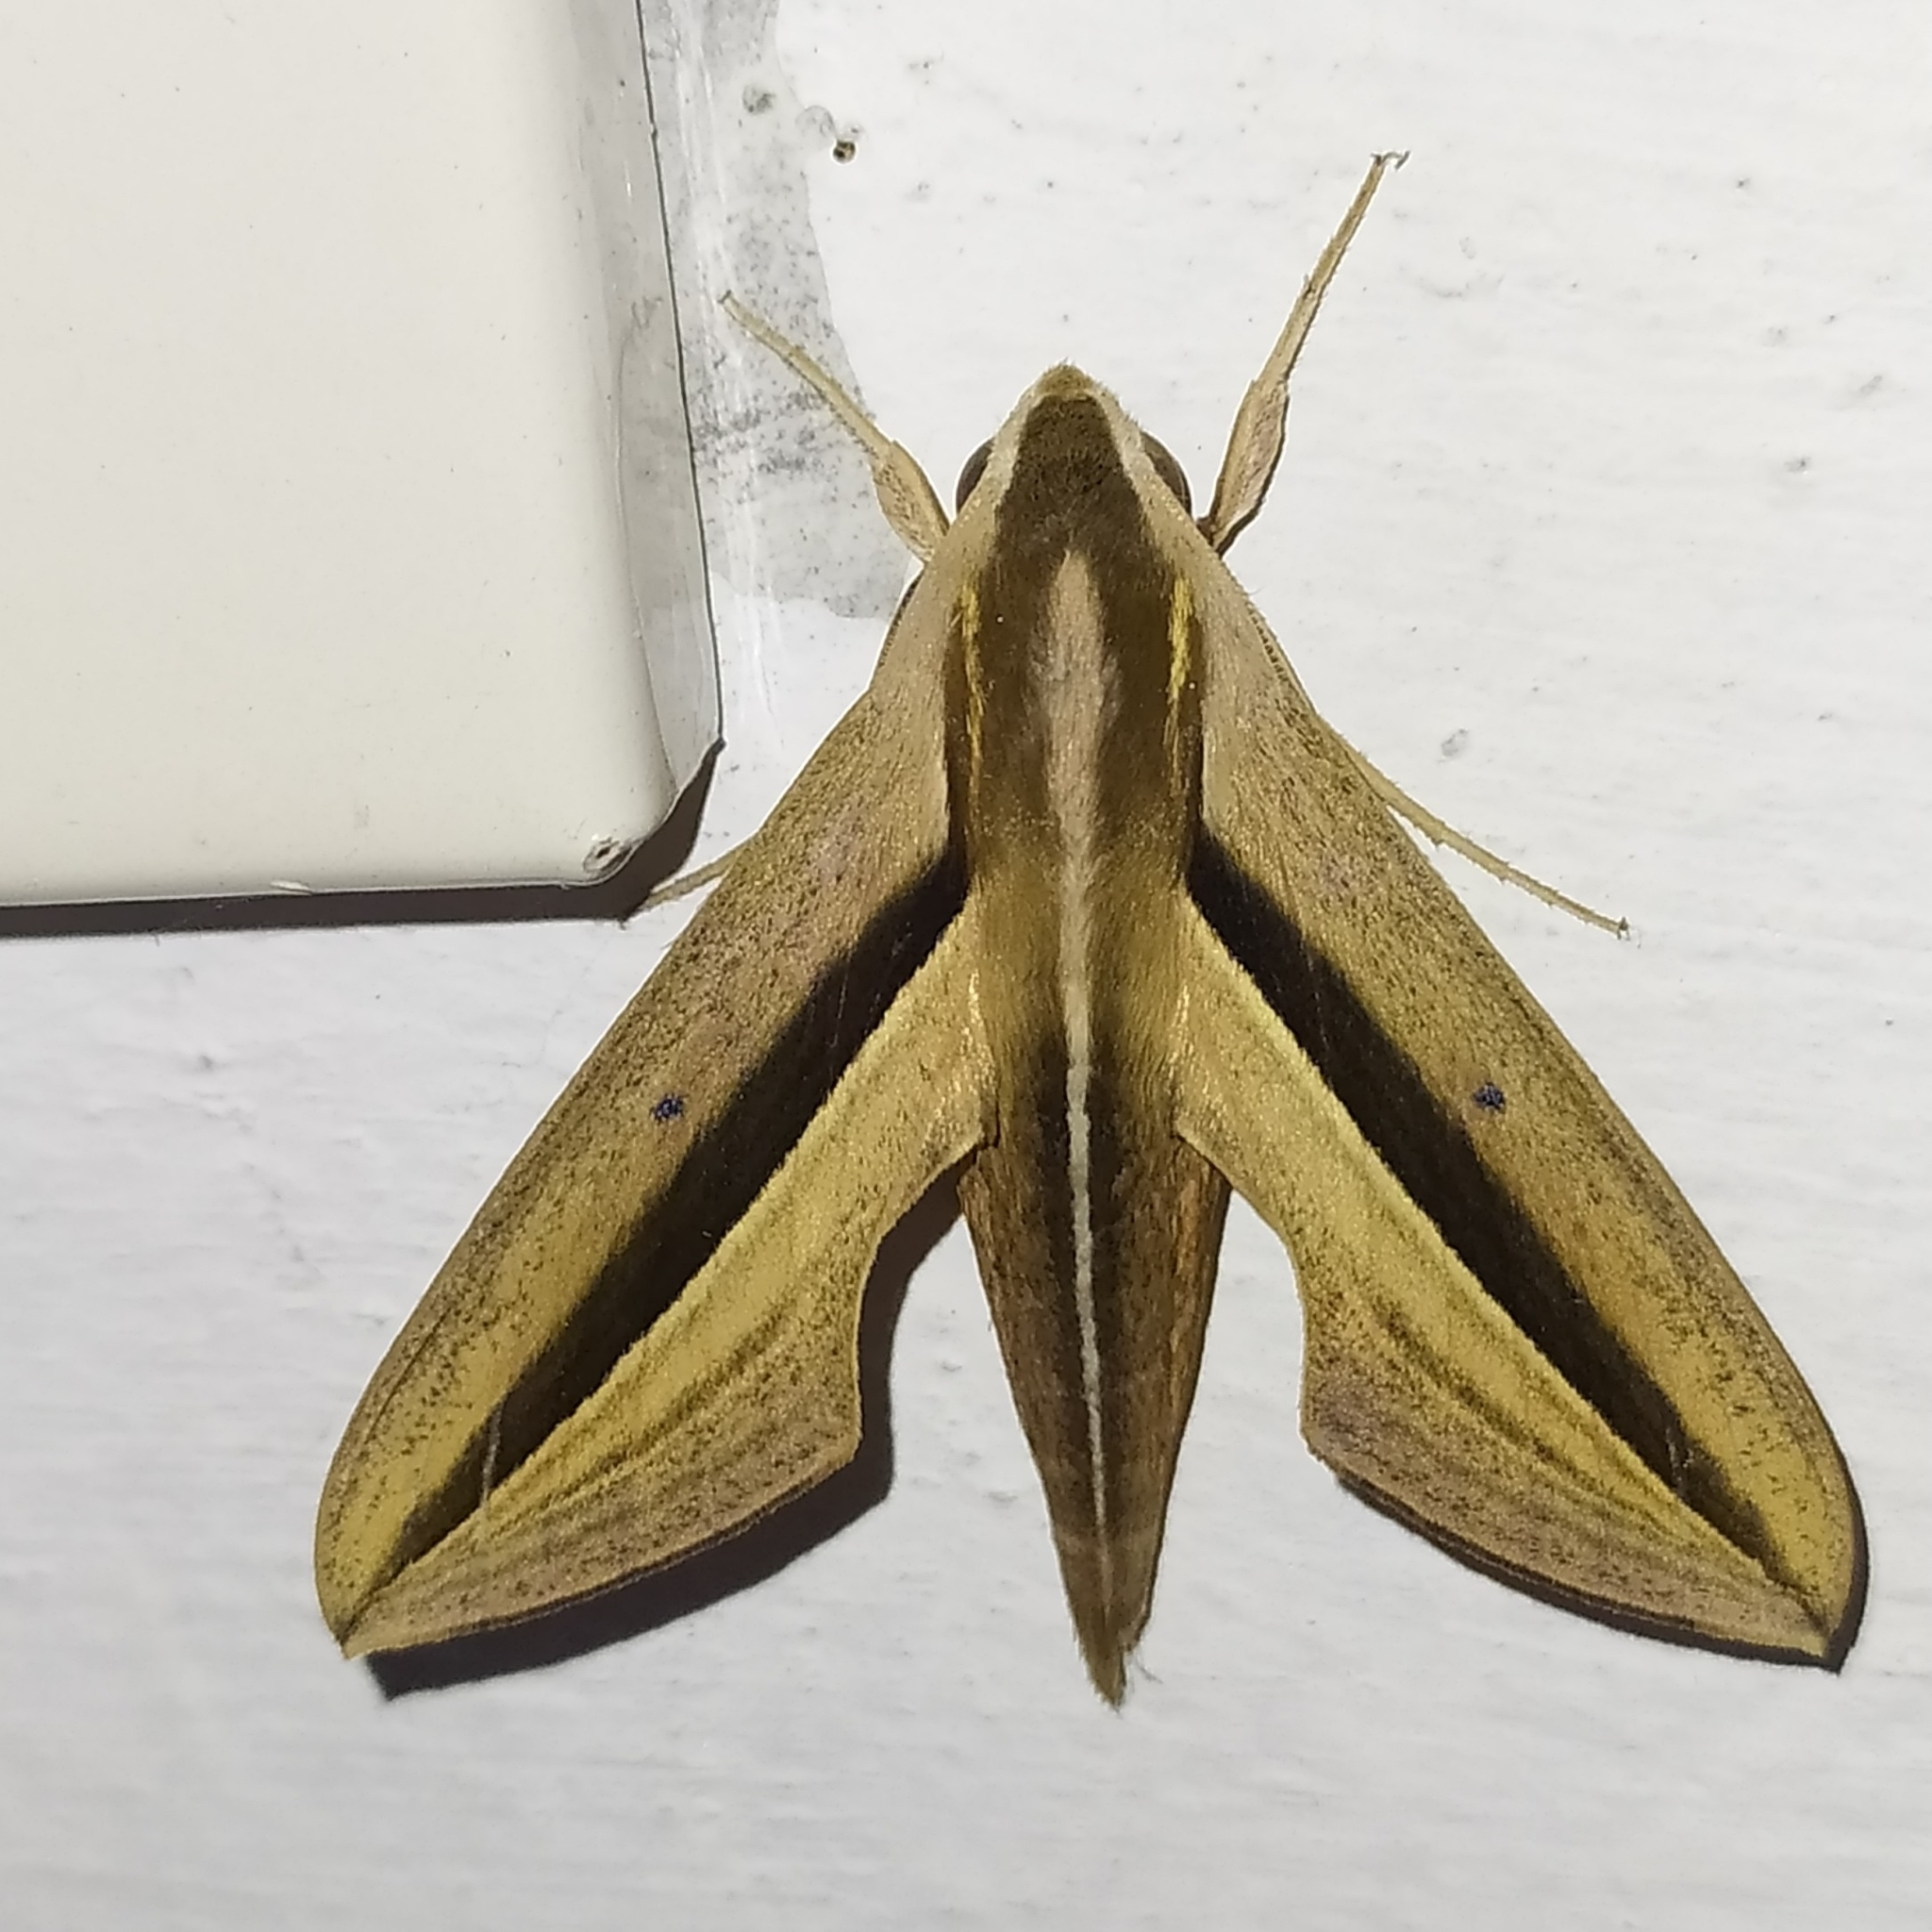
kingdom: Animalia
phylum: Arthropoda
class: Insecta
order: Lepidoptera
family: Sphingidae
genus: Theretra
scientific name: Theretra silhetensis
